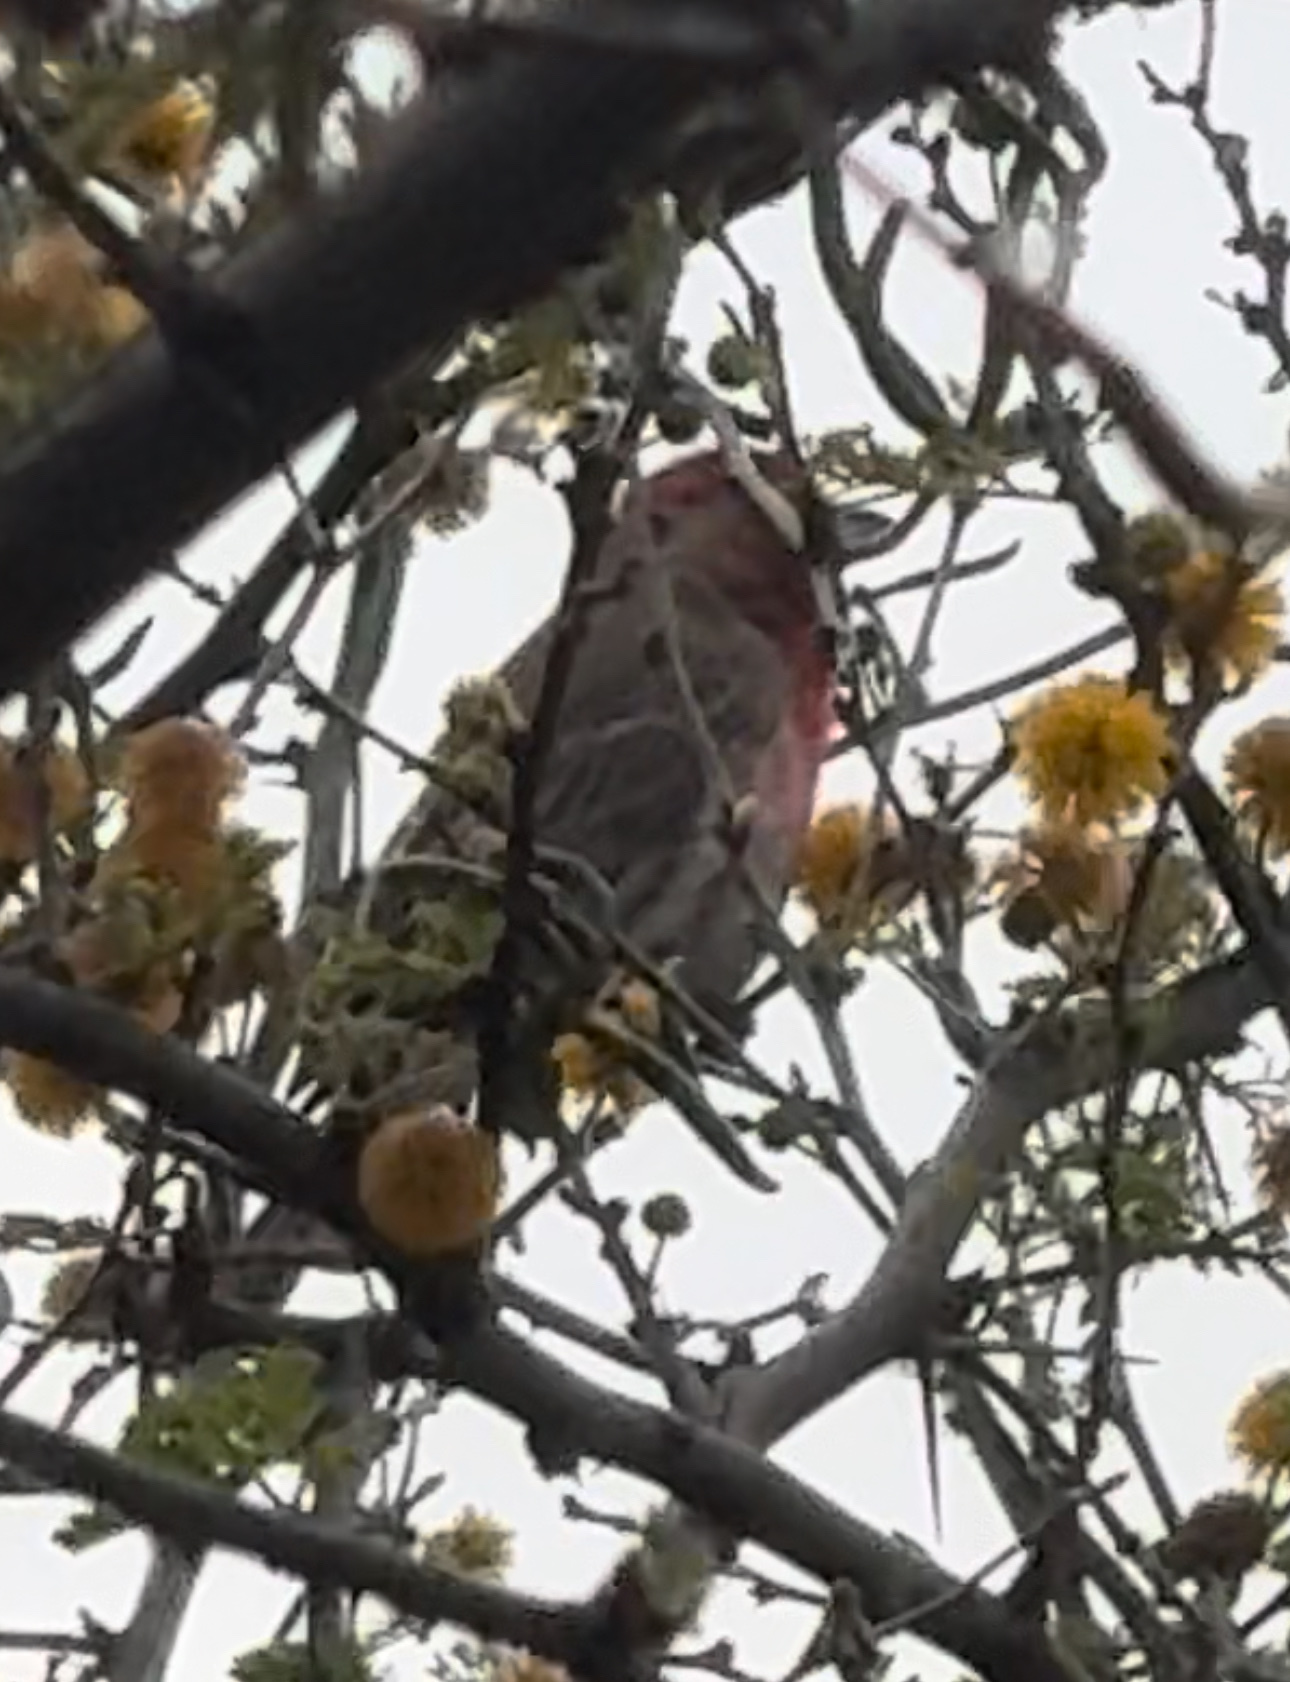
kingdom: Animalia
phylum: Chordata
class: Aves
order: Passeriformes
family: Fringillidae
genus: Haemorhous
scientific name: Haemorhous mexicanus
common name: House finch
